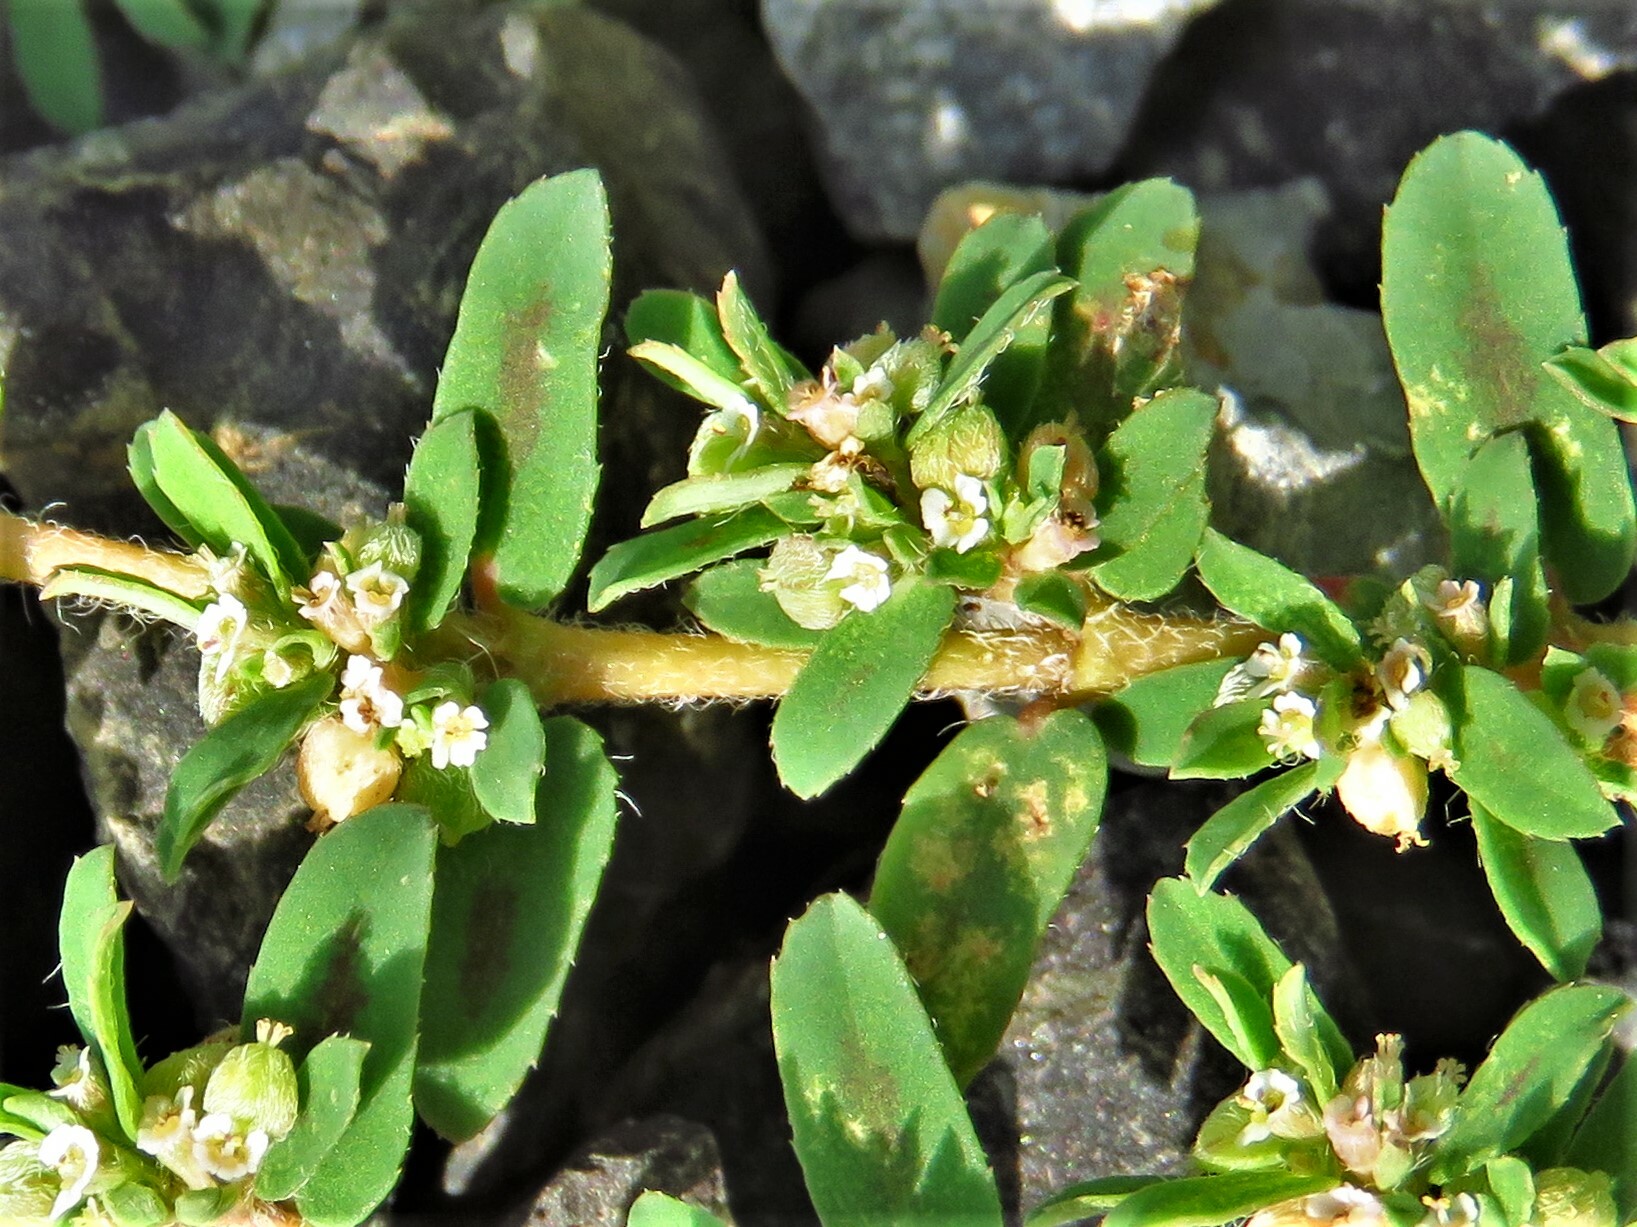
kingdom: Plantae
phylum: Tracheophyta
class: Magnoliopsida
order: Malpighiales
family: Euphorbiaceae
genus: Euphorbia
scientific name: Euphorbia maculata
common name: Spotted spurge
